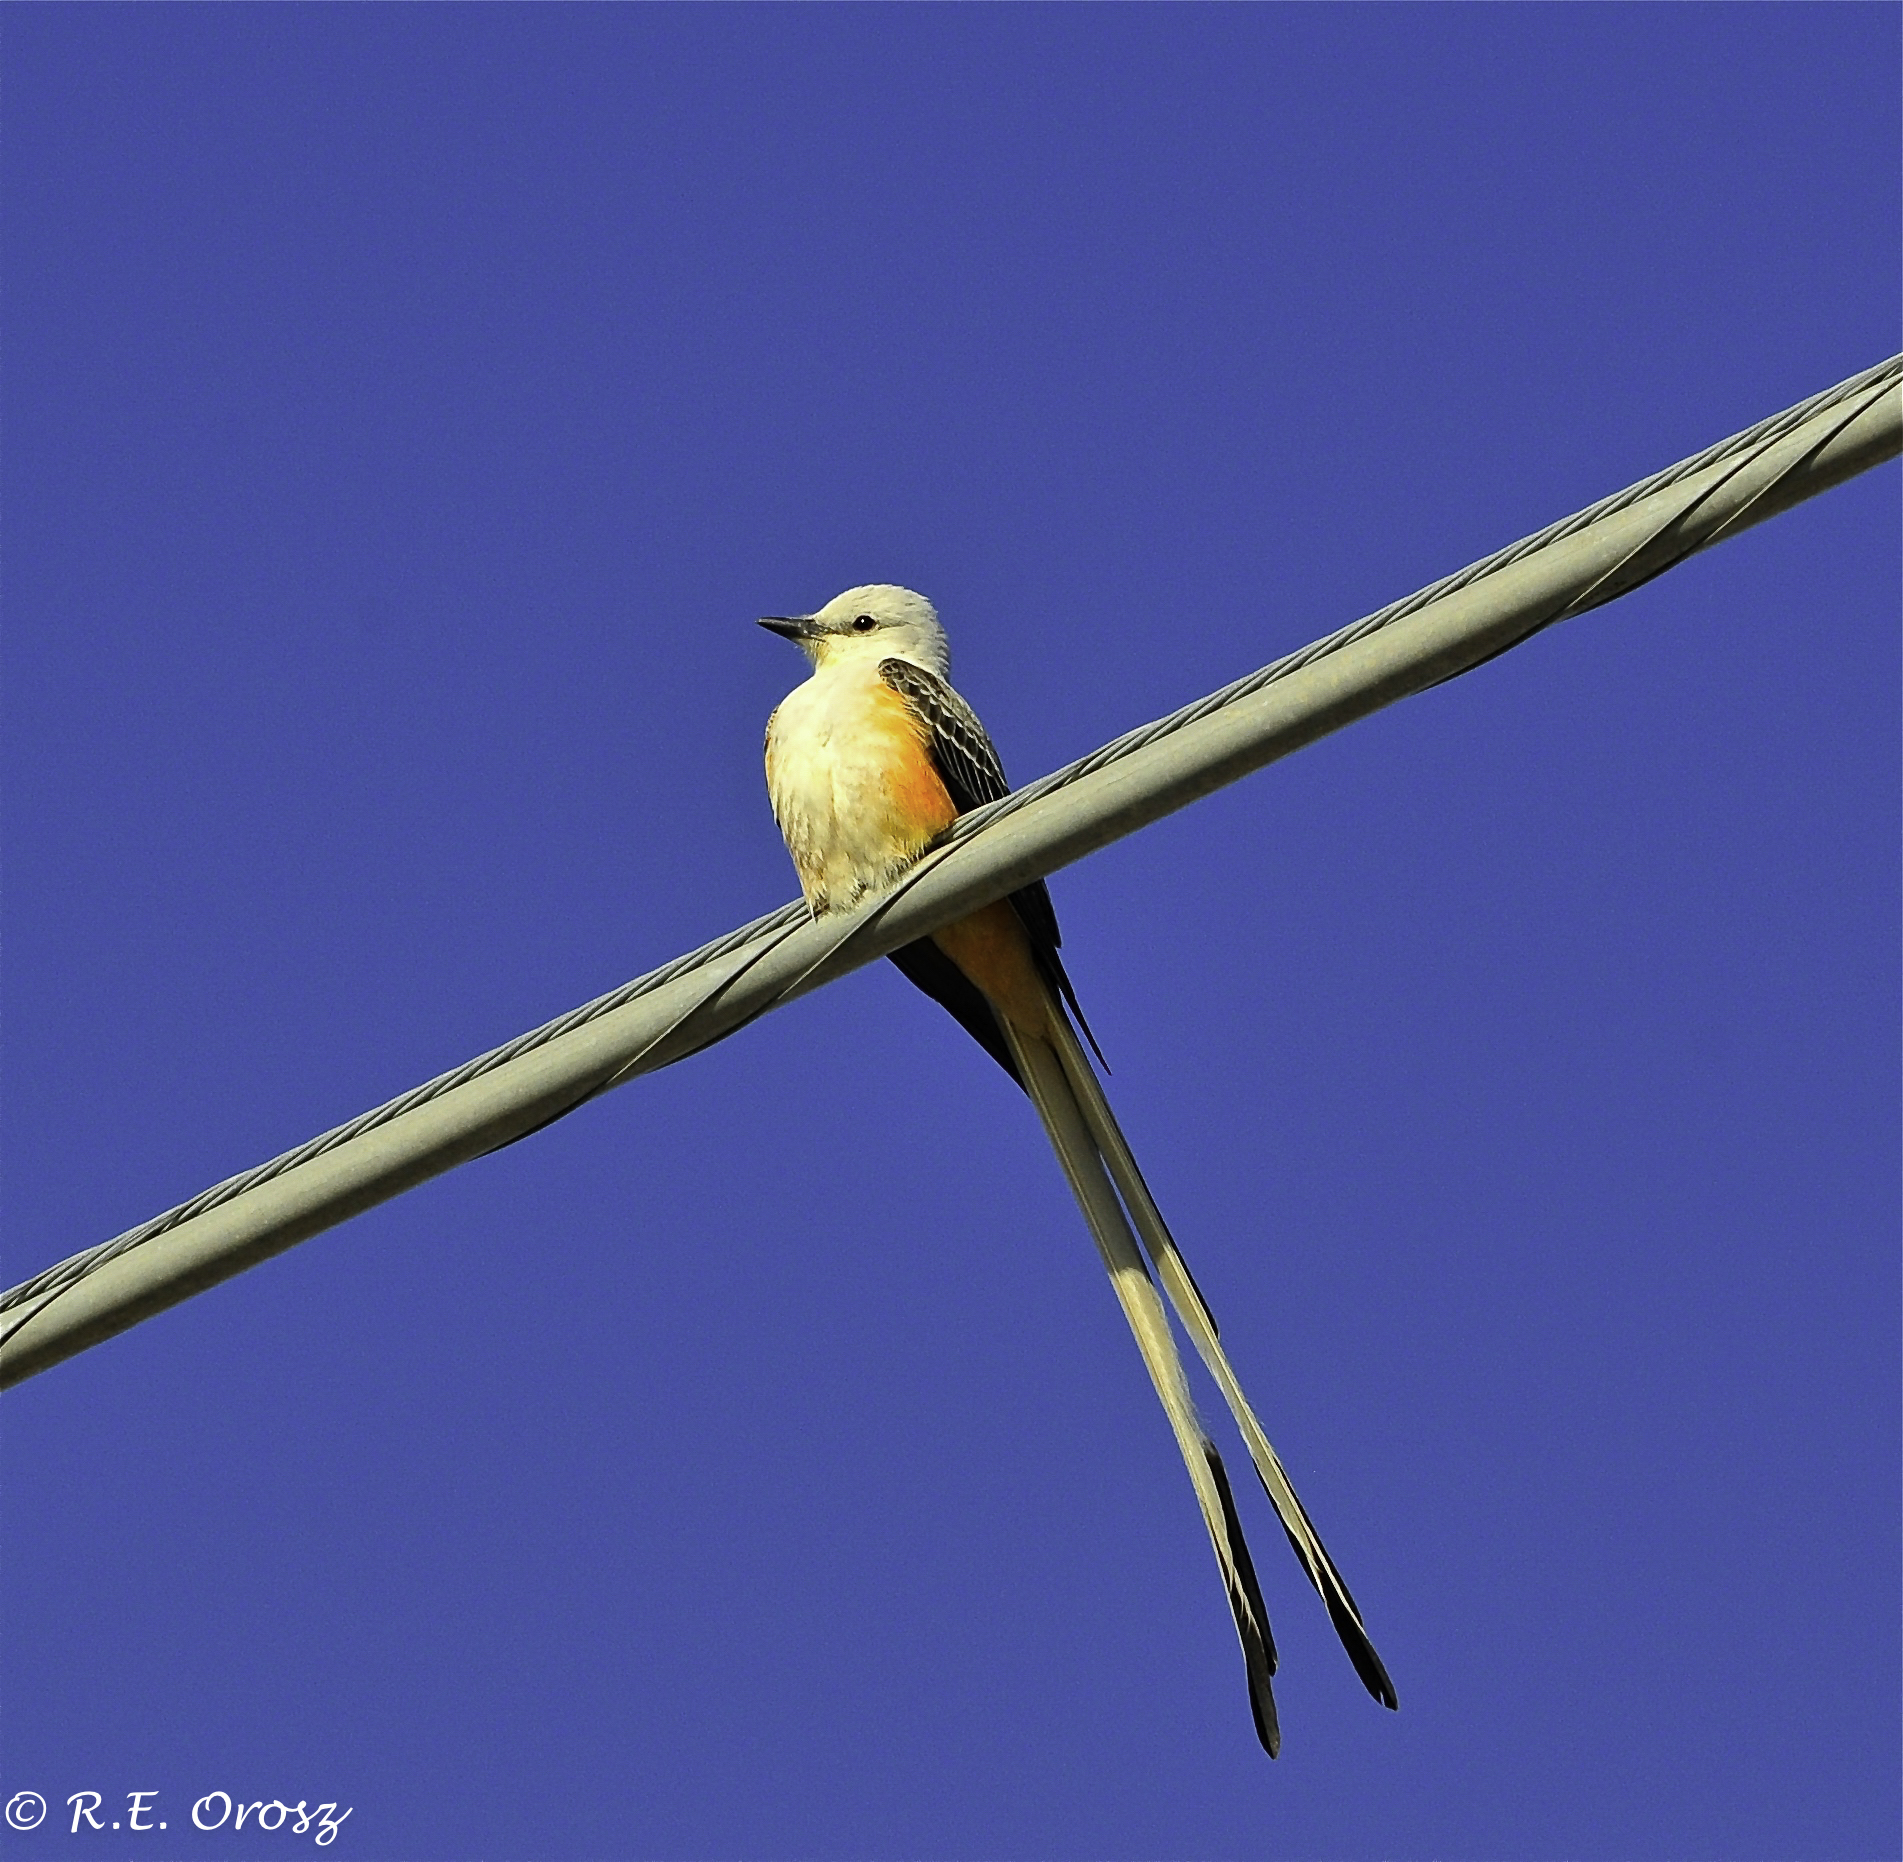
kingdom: Animalia
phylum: Chordata
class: Aves
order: Passeriformes
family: Tyrannidae
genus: Tyrannus
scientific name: Tyrannus forficatus
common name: Scissor-tailed flycatcher
